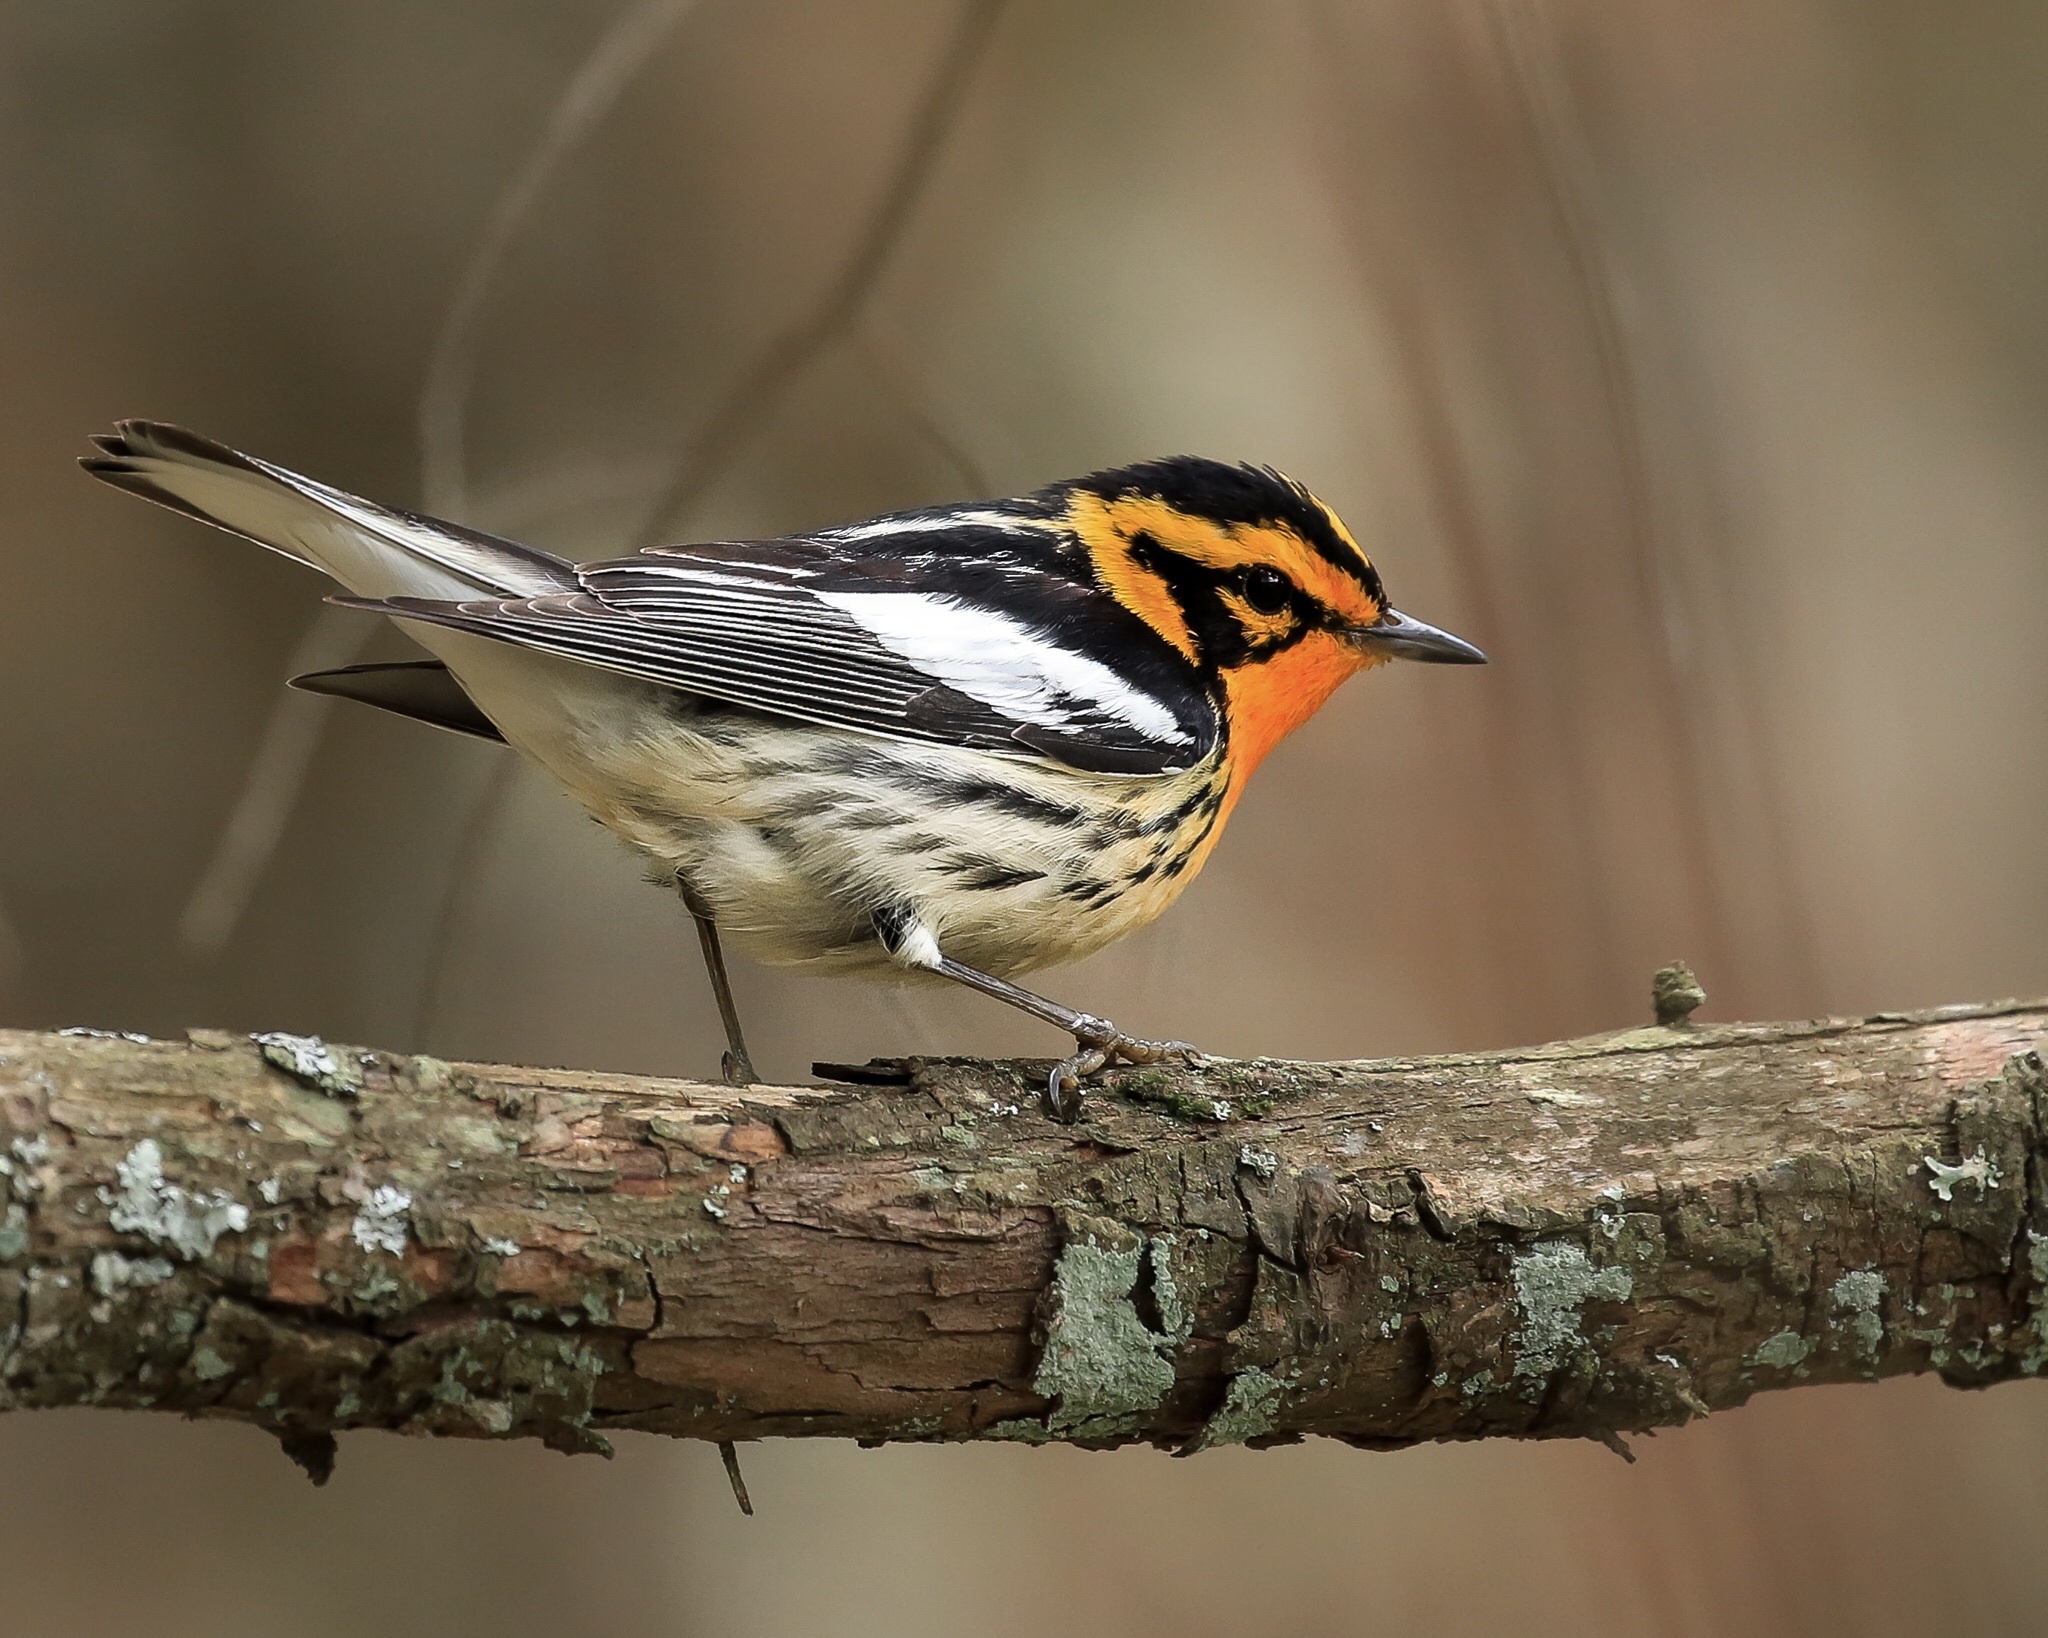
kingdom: Animalia
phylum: Chordata
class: Aves
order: Passeriformes
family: Parulidae
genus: Setophaga
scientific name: Setophaga fusca
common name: Blackburnian warbler
